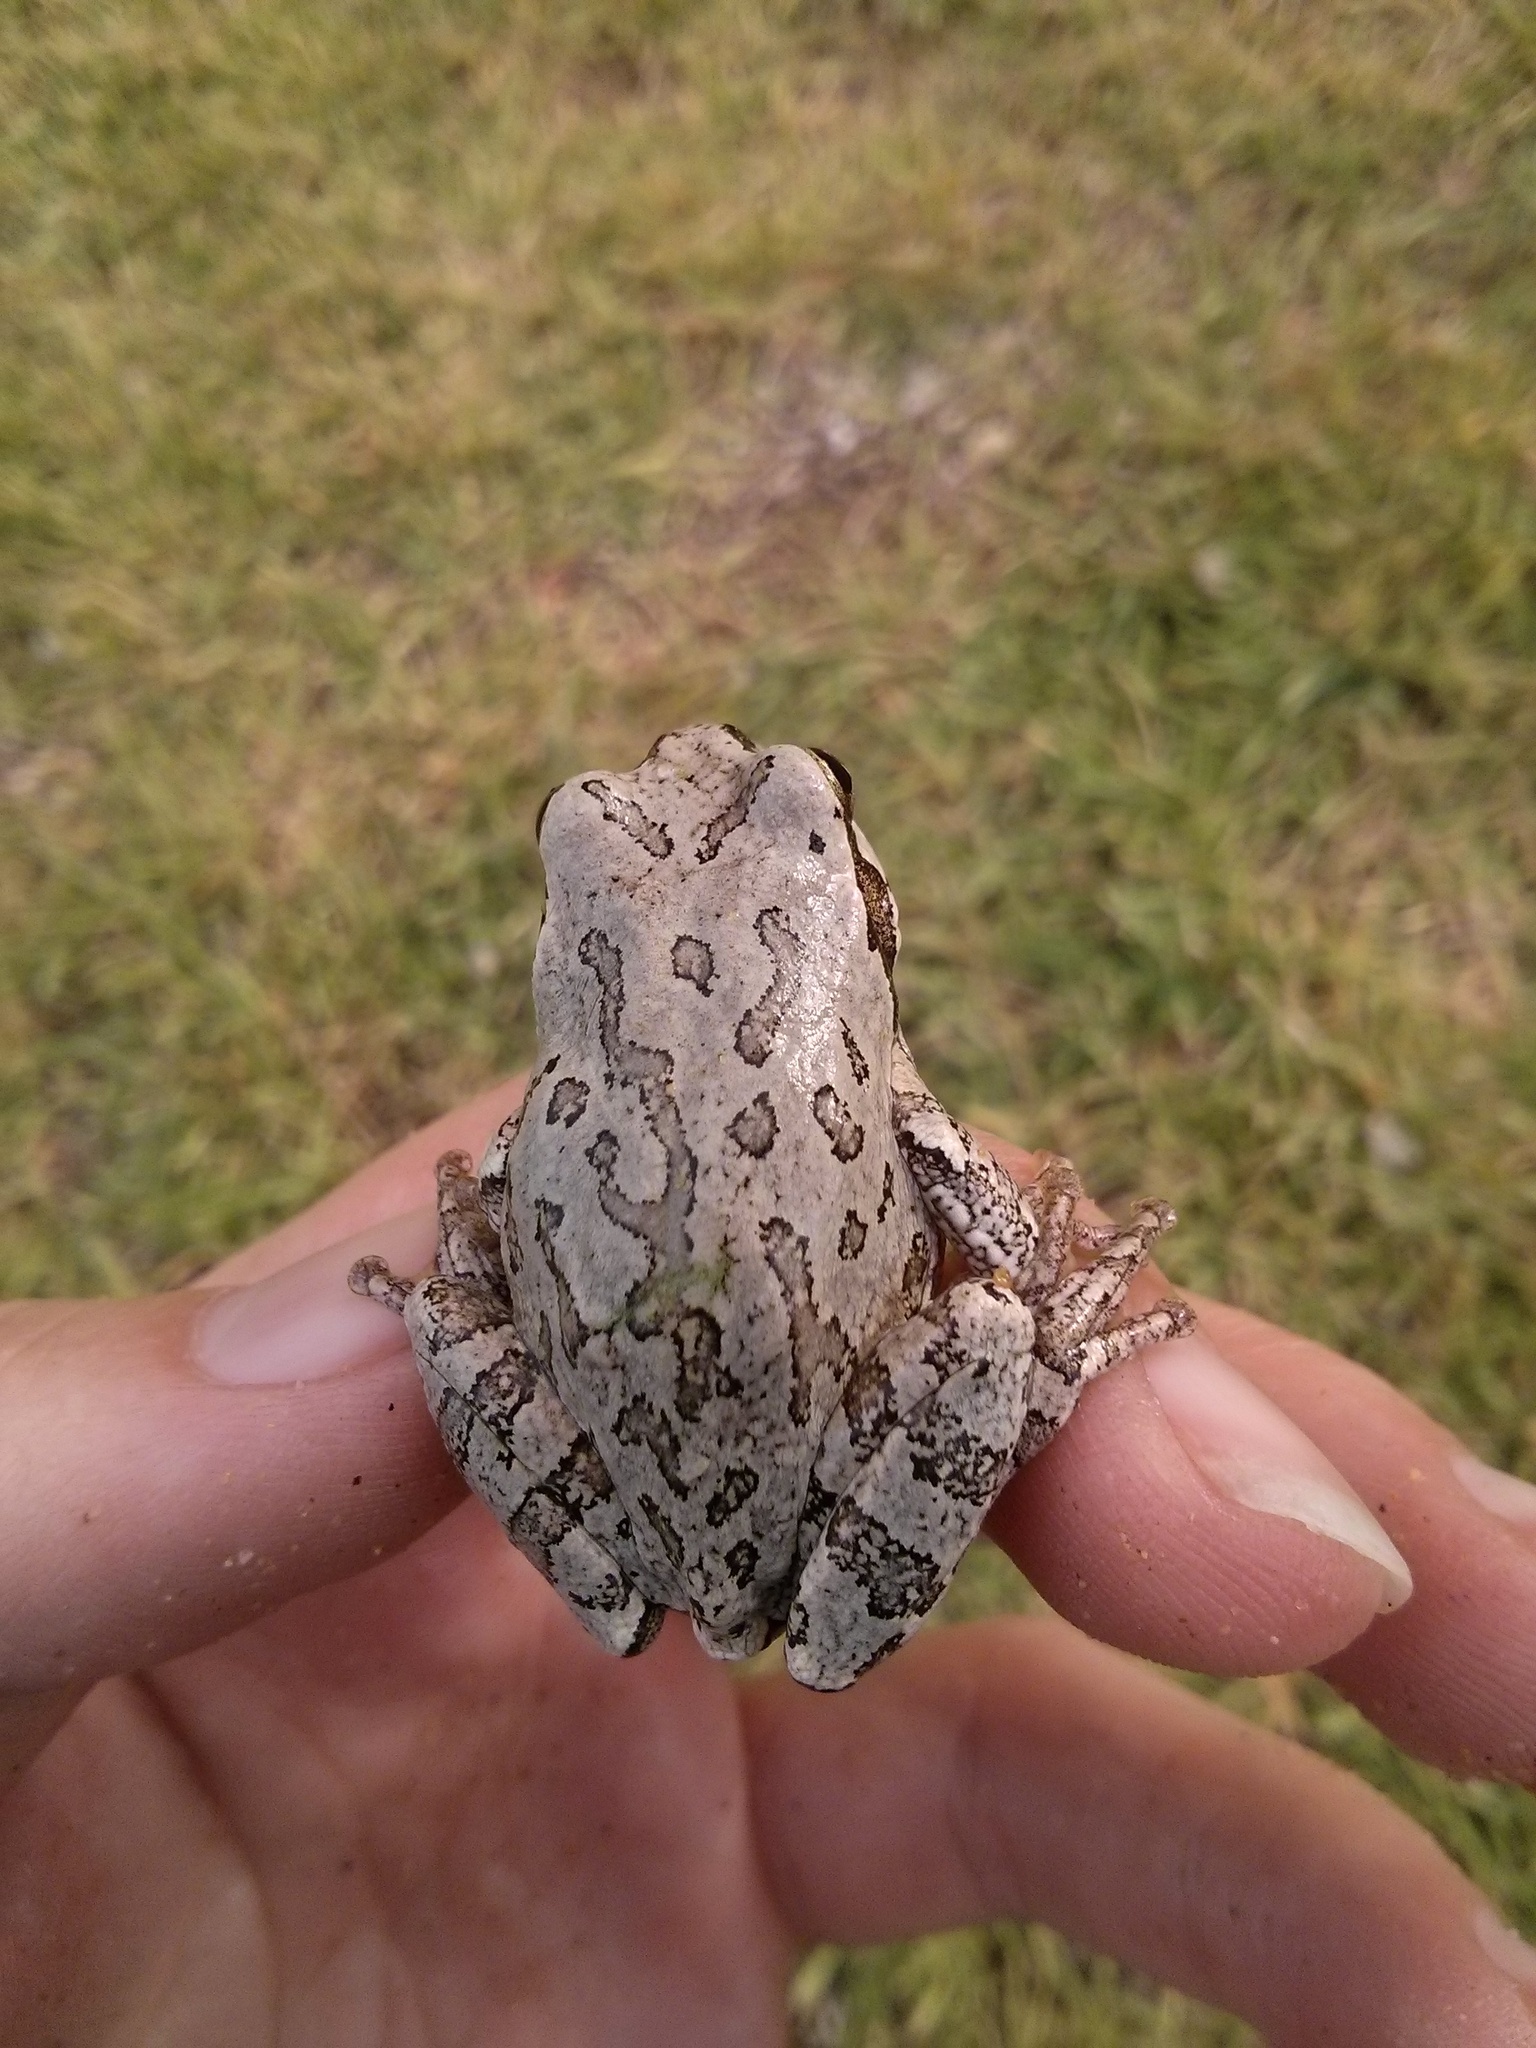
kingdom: Animalia
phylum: Chordata
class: Amphibia
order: Anura
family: Hylidae
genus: Dryophytes
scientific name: Dryophytes japonicus
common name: Japanese treefrog
